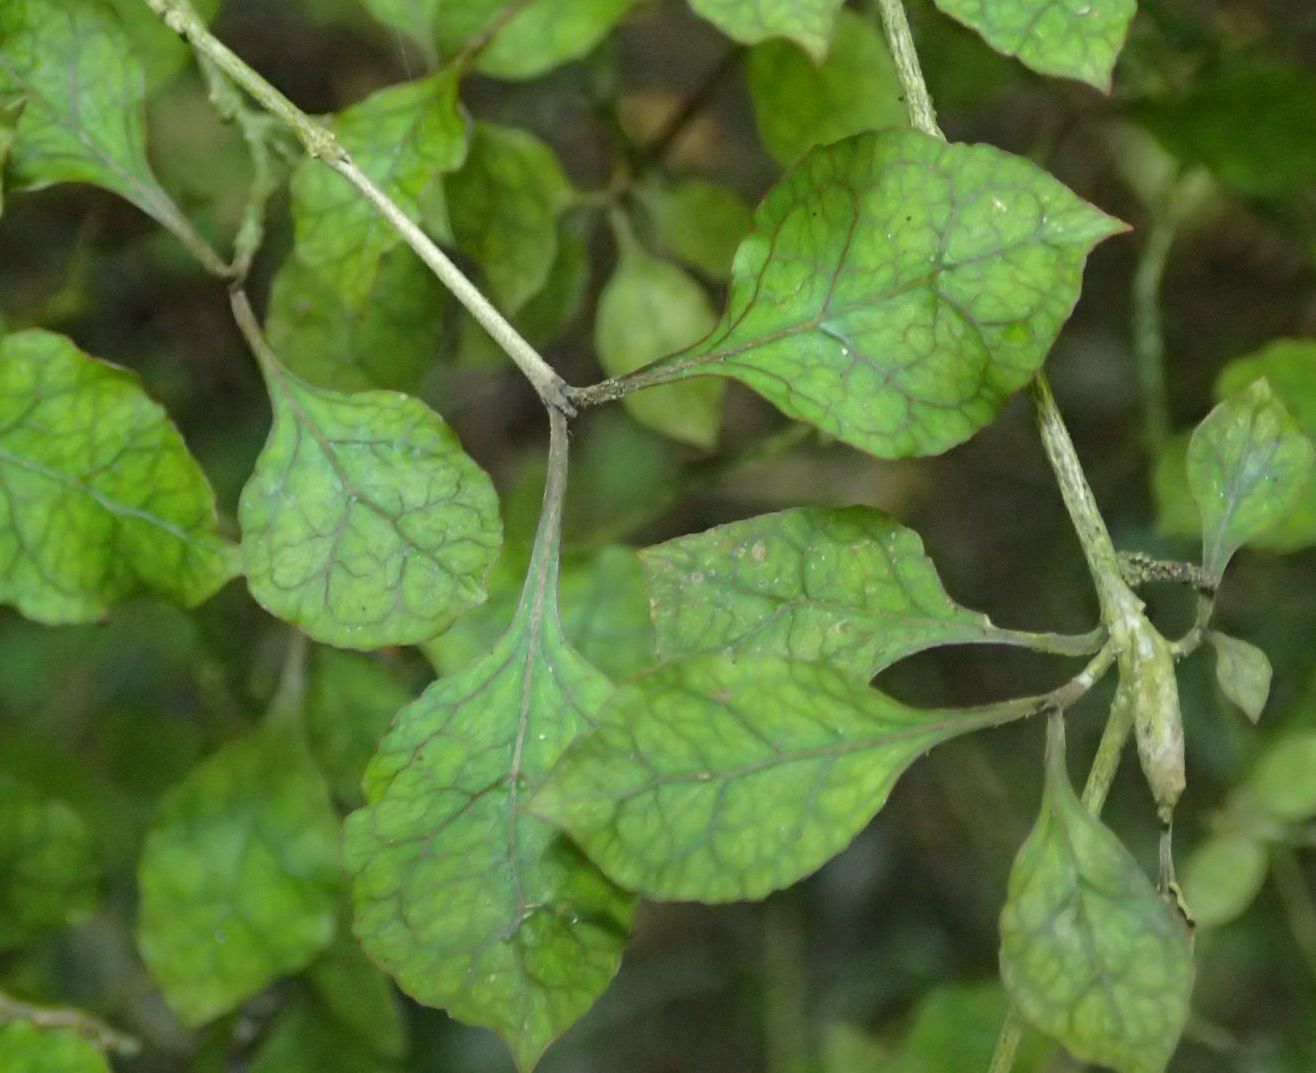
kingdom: Plantae
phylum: Tracheophyta
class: Magnoliopsida
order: Gentianales
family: Rubiaceae
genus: Coprosma
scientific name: Coprosma areolata
